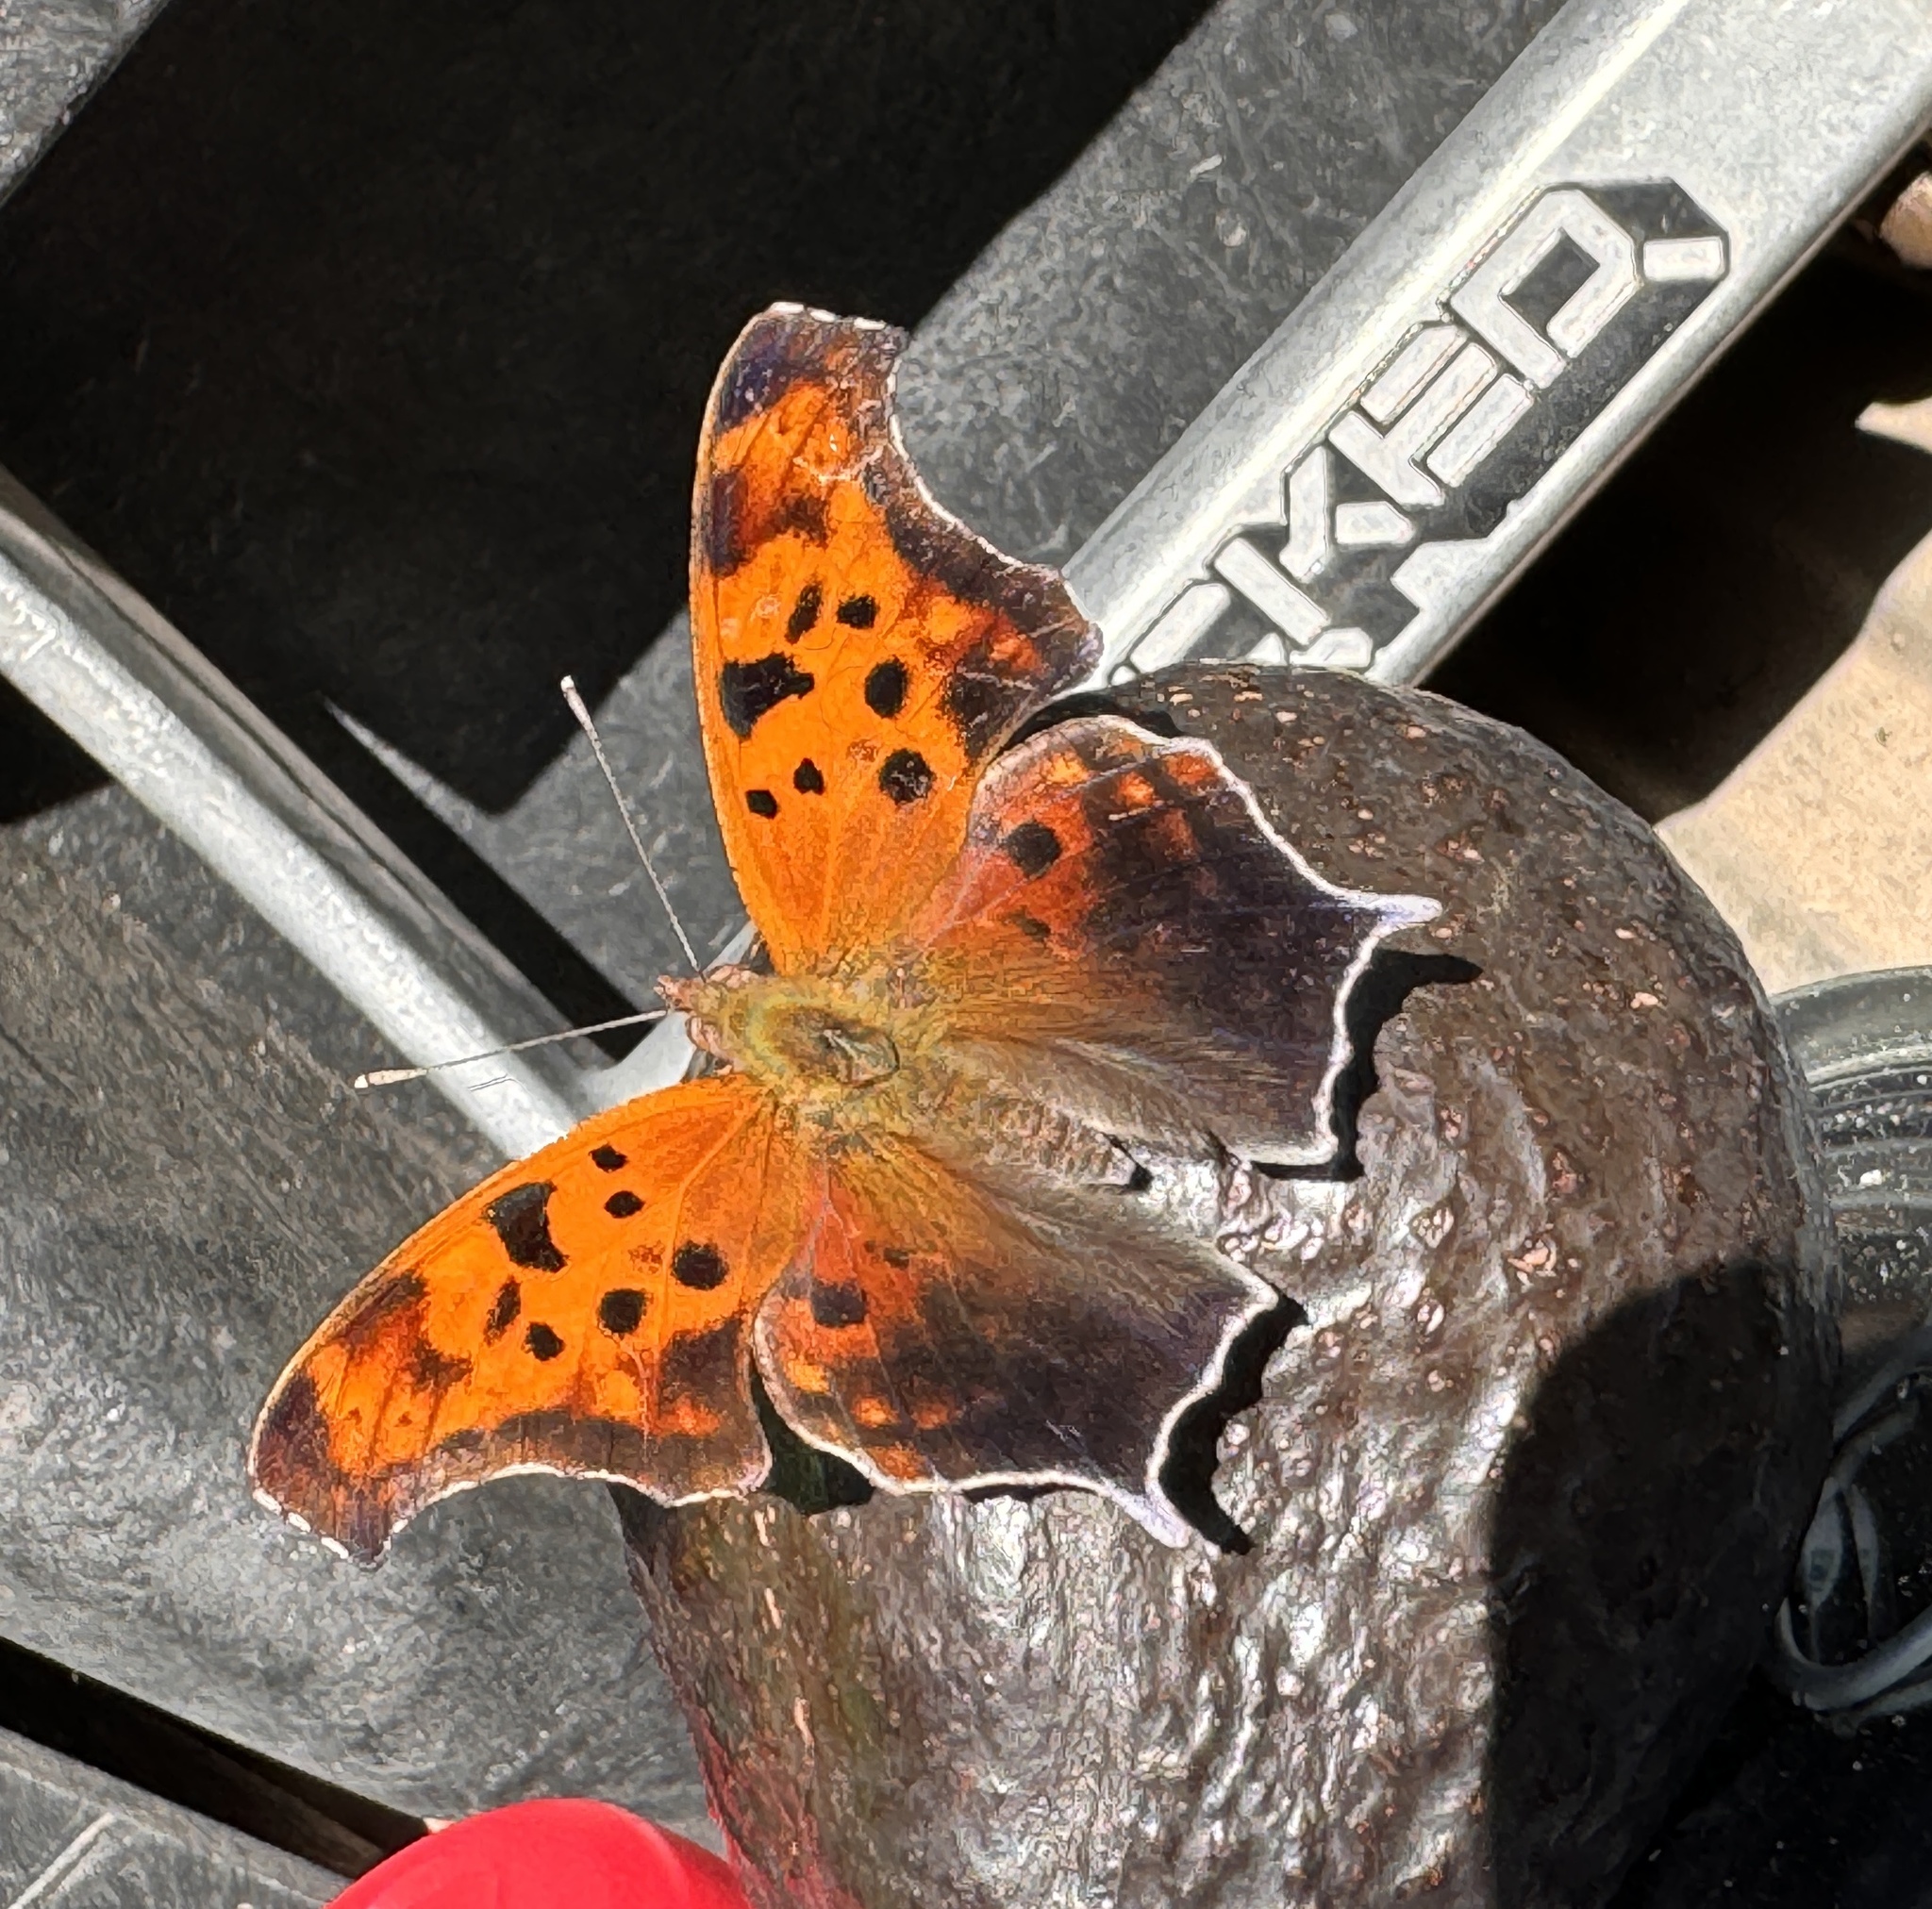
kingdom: Animalia
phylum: Arthropoda
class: Insecta
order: Lepidoptera
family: Nymphalidae
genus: Polygonia
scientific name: Polygonia interrogationis
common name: Question mark
